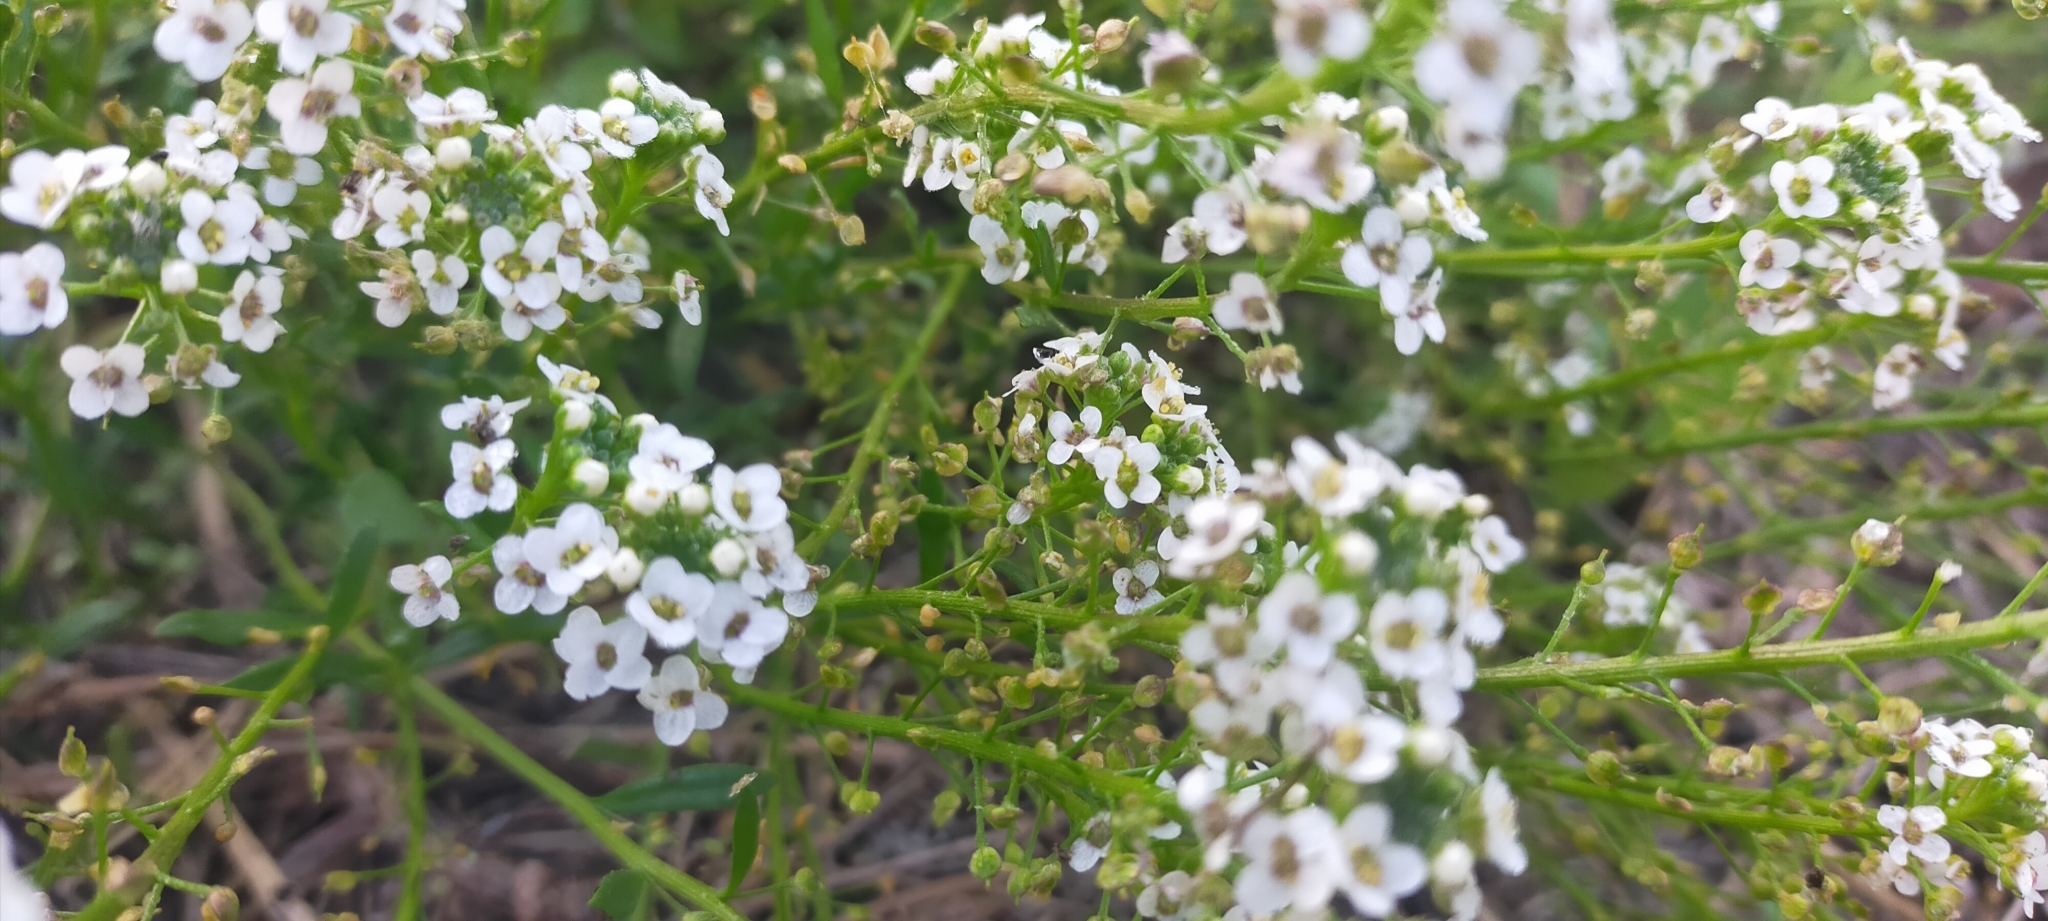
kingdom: Plantae
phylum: Tracheophyta
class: Magnoliopsida
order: Brassicales
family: Brassicaceae
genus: Lobularia
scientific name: Lobularia maritima
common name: Sweet alison
